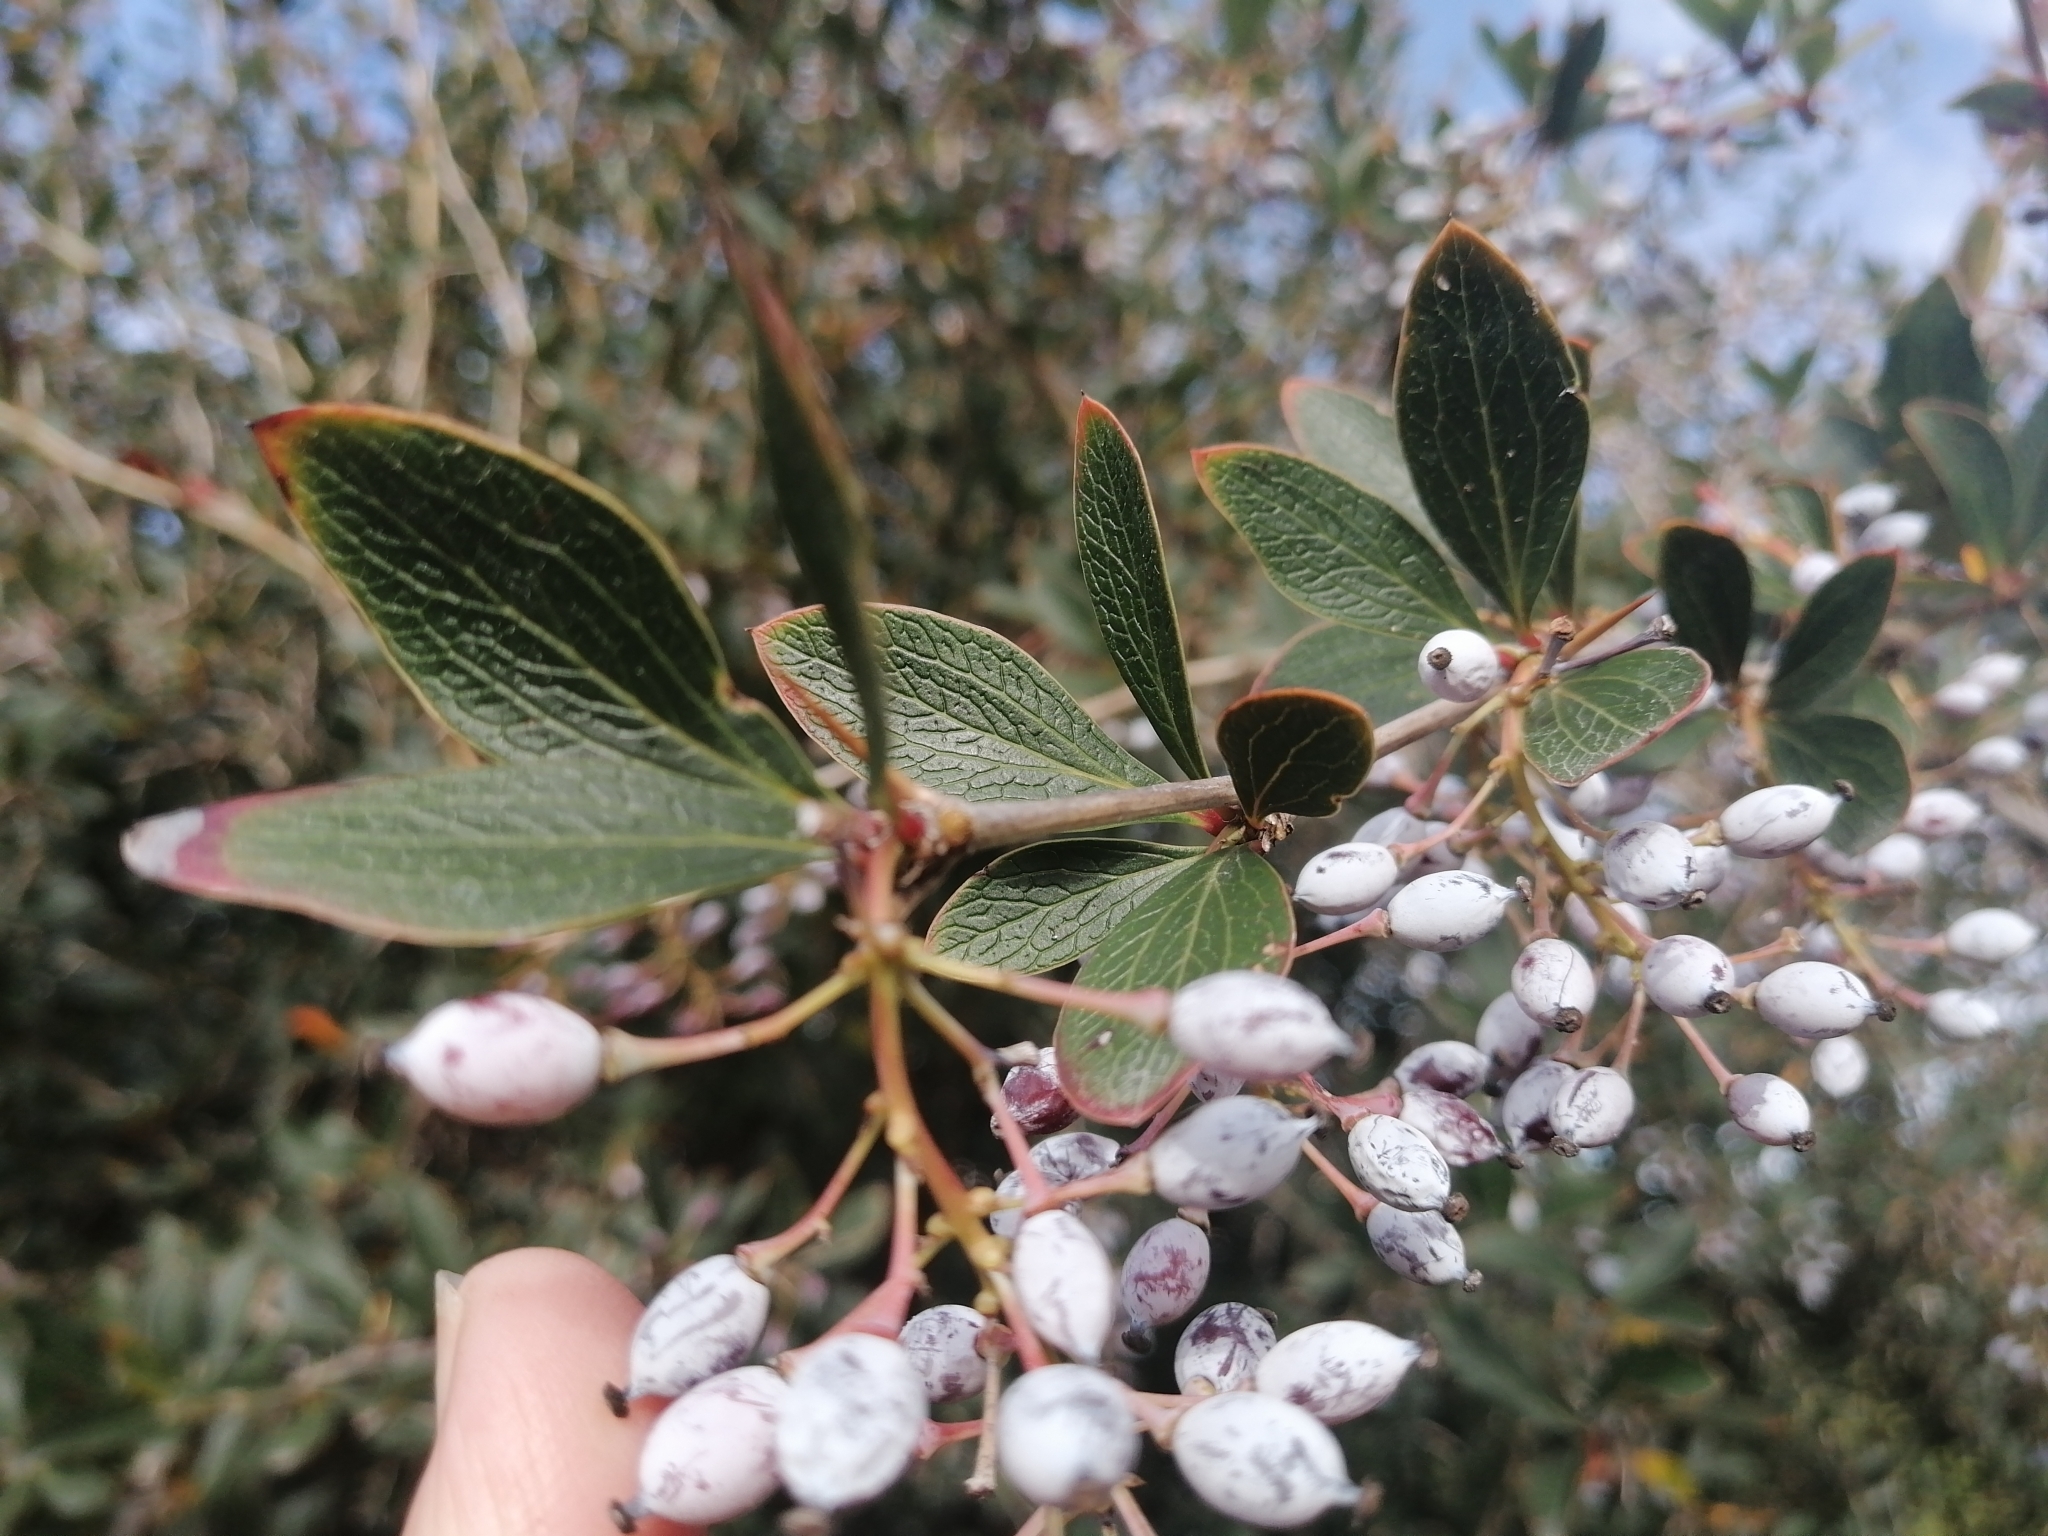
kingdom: Plantae
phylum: Tracheophyta
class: Magnoliopsida
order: Ranunculales
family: Berberidaceae
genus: Berberis
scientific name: Berberis glaucocarpa
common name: Great barberry
